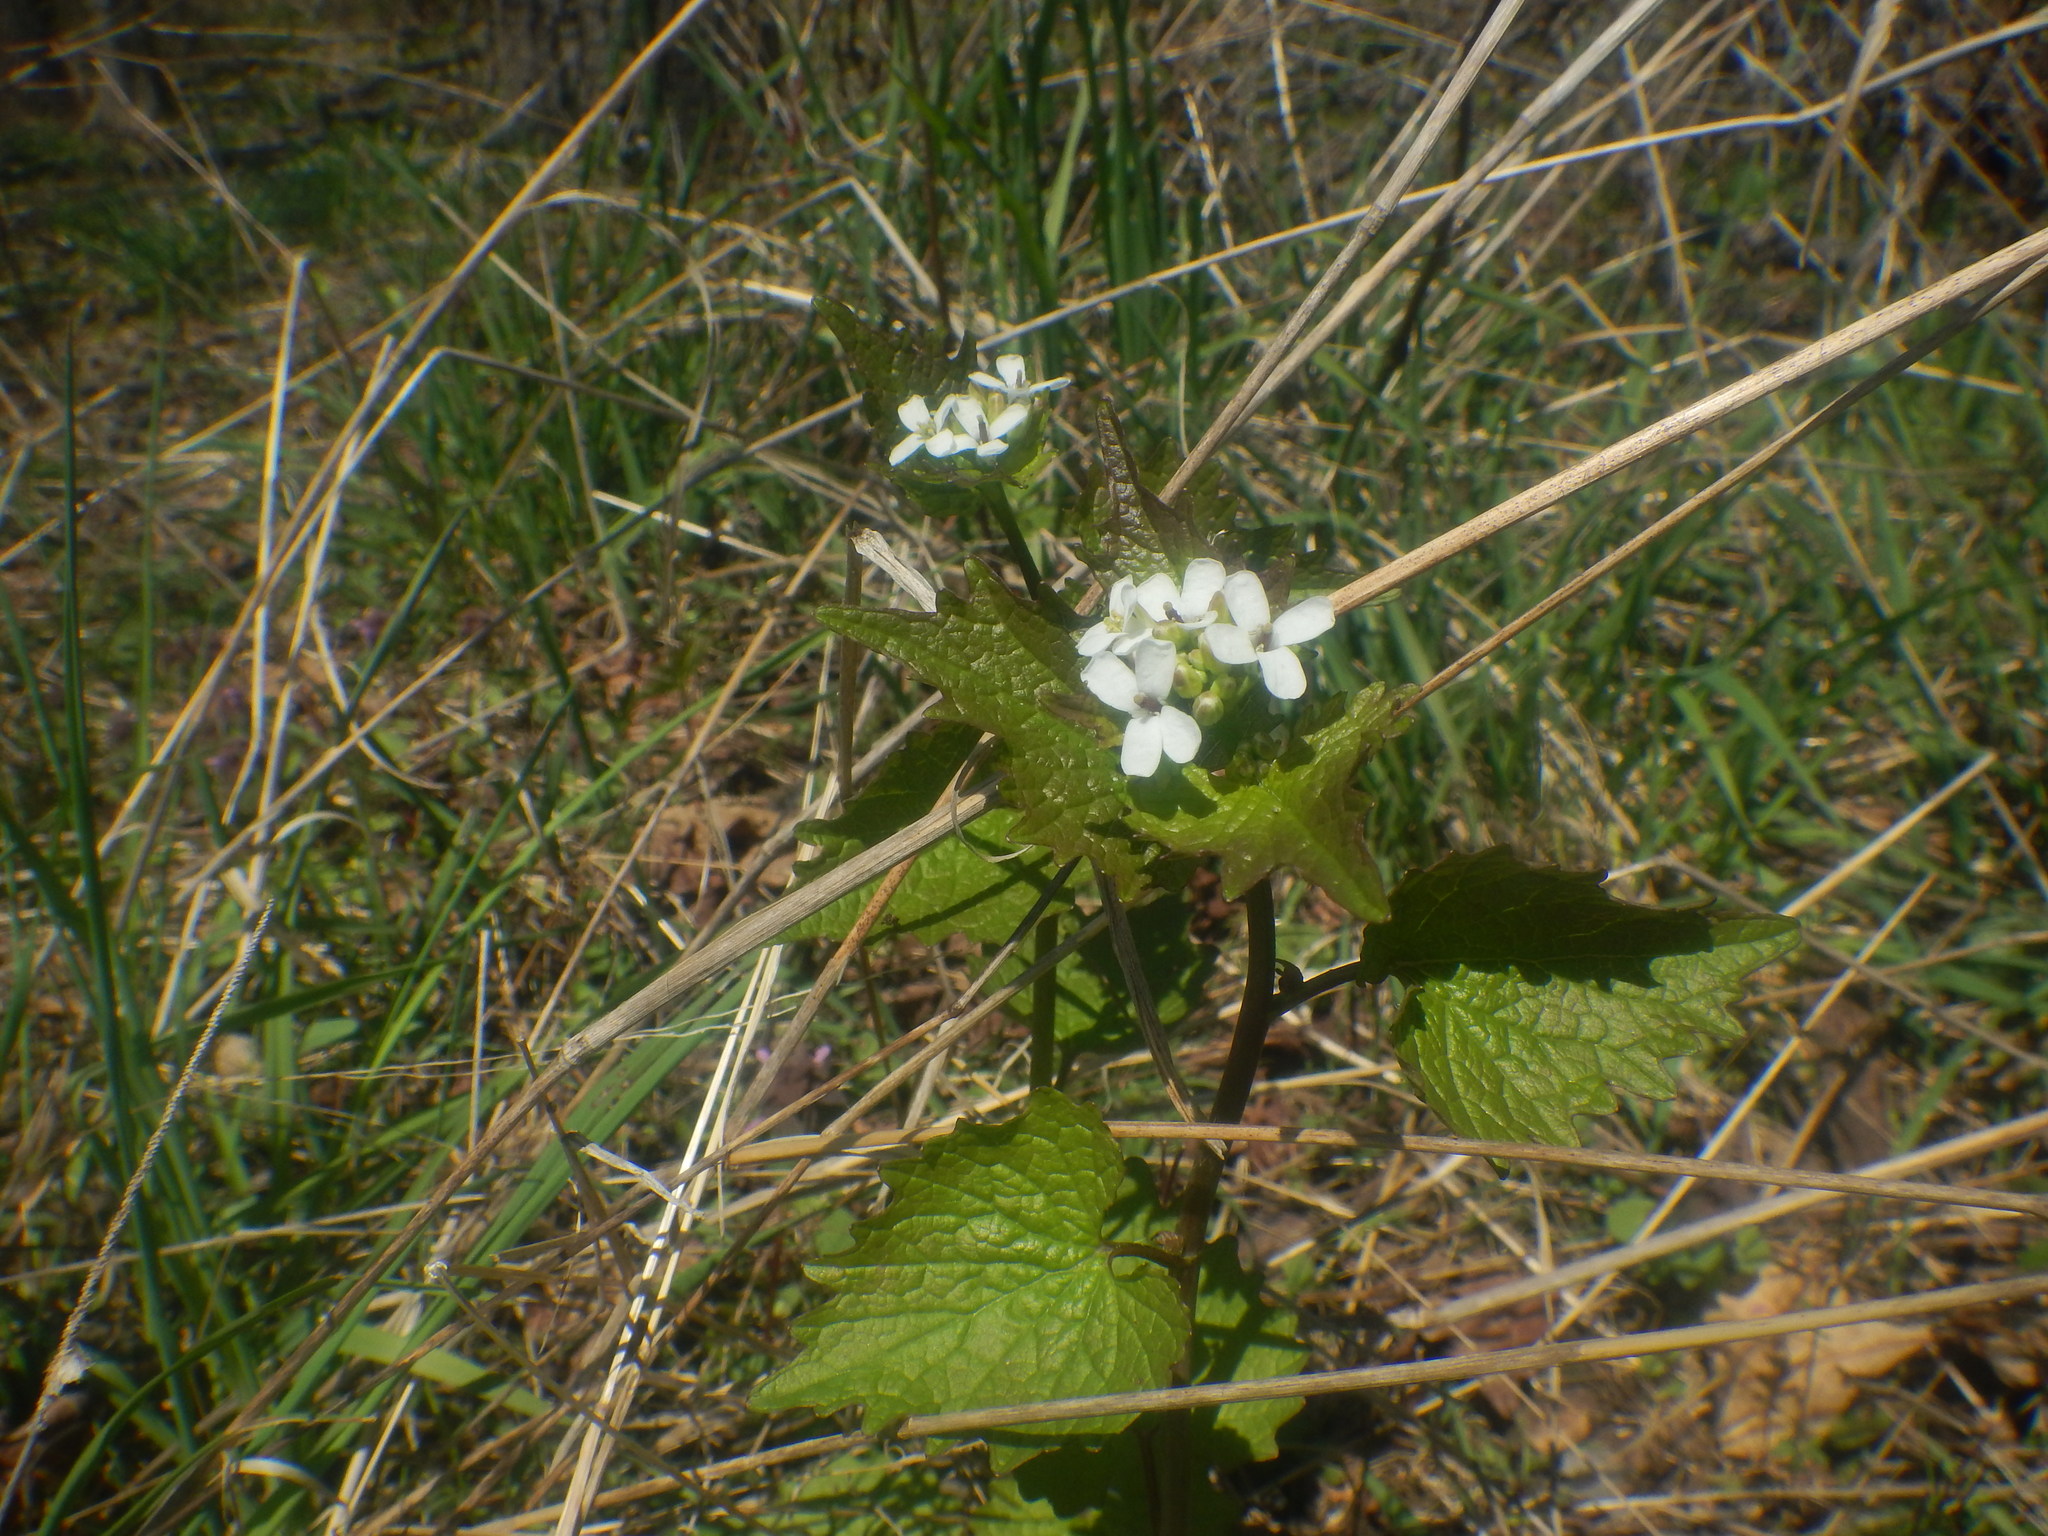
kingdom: Plantae
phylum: Tracheophyta
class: Magnoliopsida
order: Brassicales
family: Brassicaceae
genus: Alliaria
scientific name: Alliaria petiolata
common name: Garlic mustard
